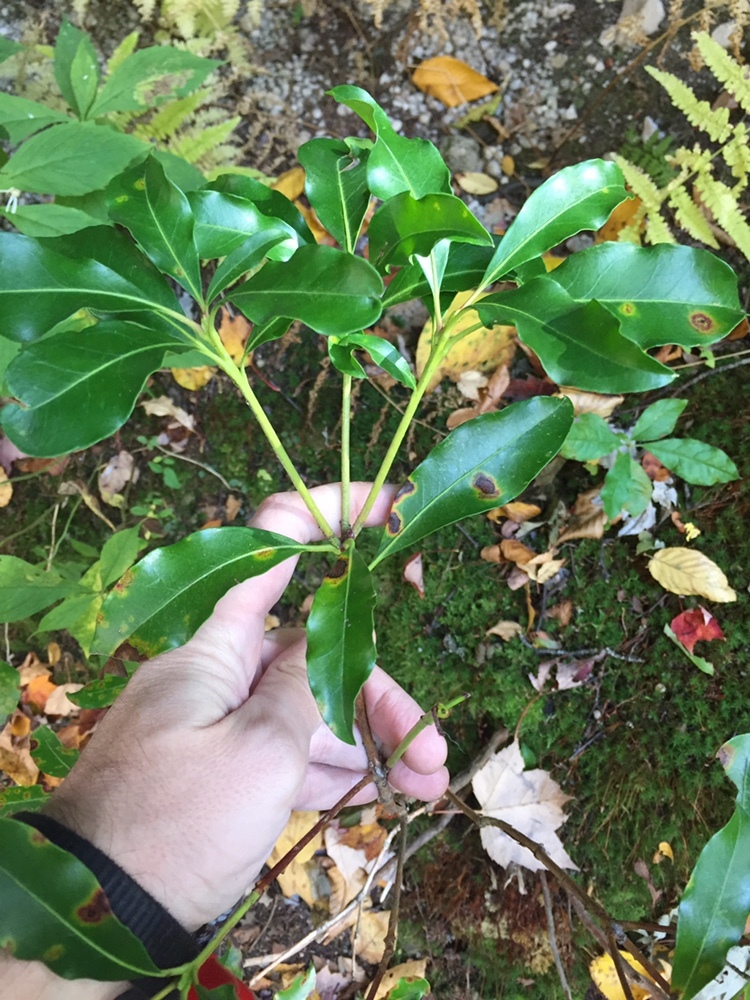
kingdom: Plantae
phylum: Tracheophyta
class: Magnoliopsida
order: Ericales
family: Ericaceae
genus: Kalmia
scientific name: Kalmia latifolia
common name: Mountain-laurel
